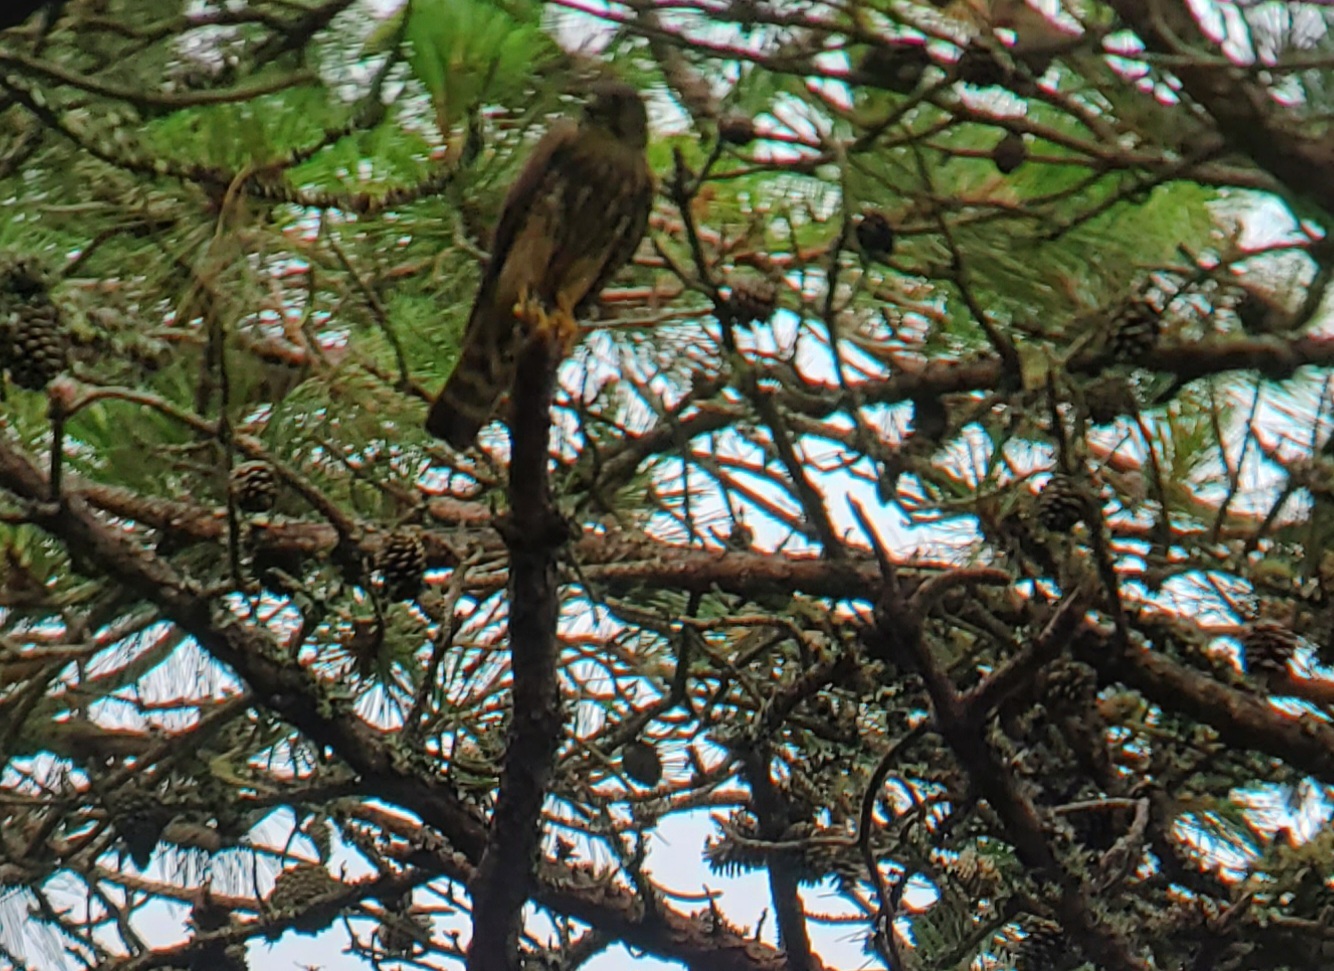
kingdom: Animalia
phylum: Chordata
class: Aves
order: Falconiformes
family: Falconidae
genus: Falco
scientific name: Falco columbarius
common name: Merlin
